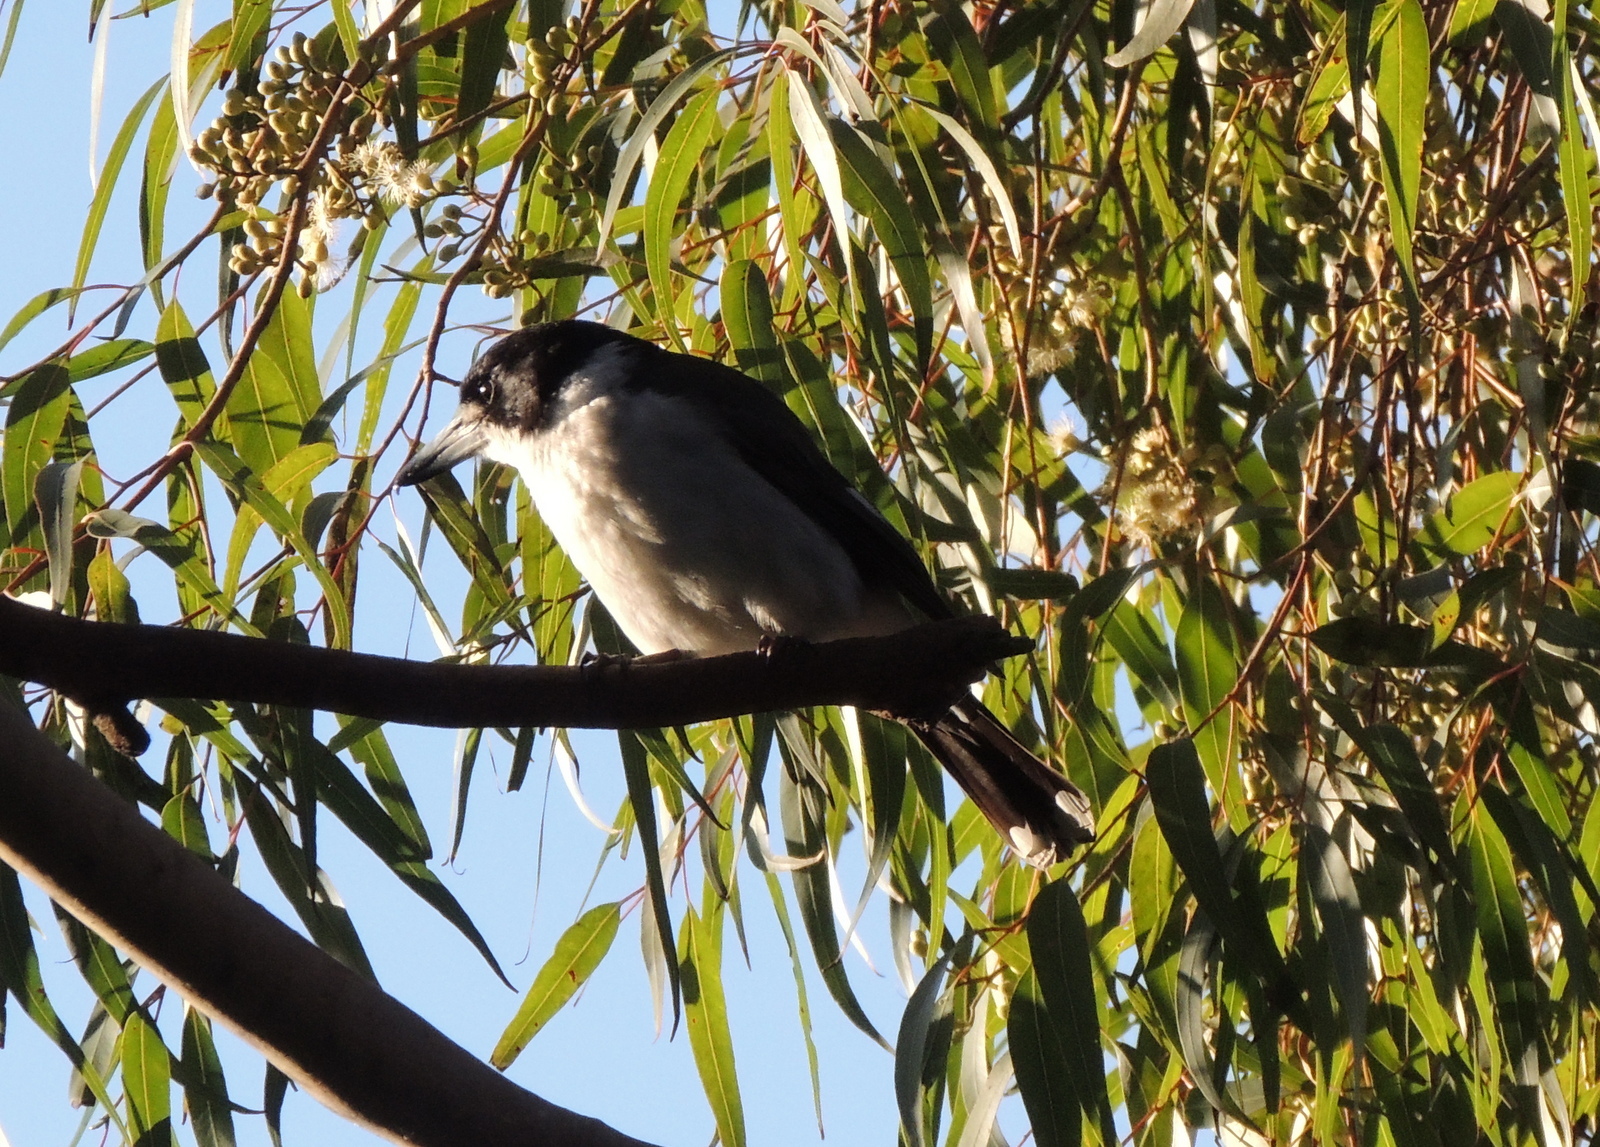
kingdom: Animalia
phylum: Chordata
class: Aves
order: Passeriformes
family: Cracticidae
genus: Cracticus
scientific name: Cracticus torquatus
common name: Grey butcherbird
